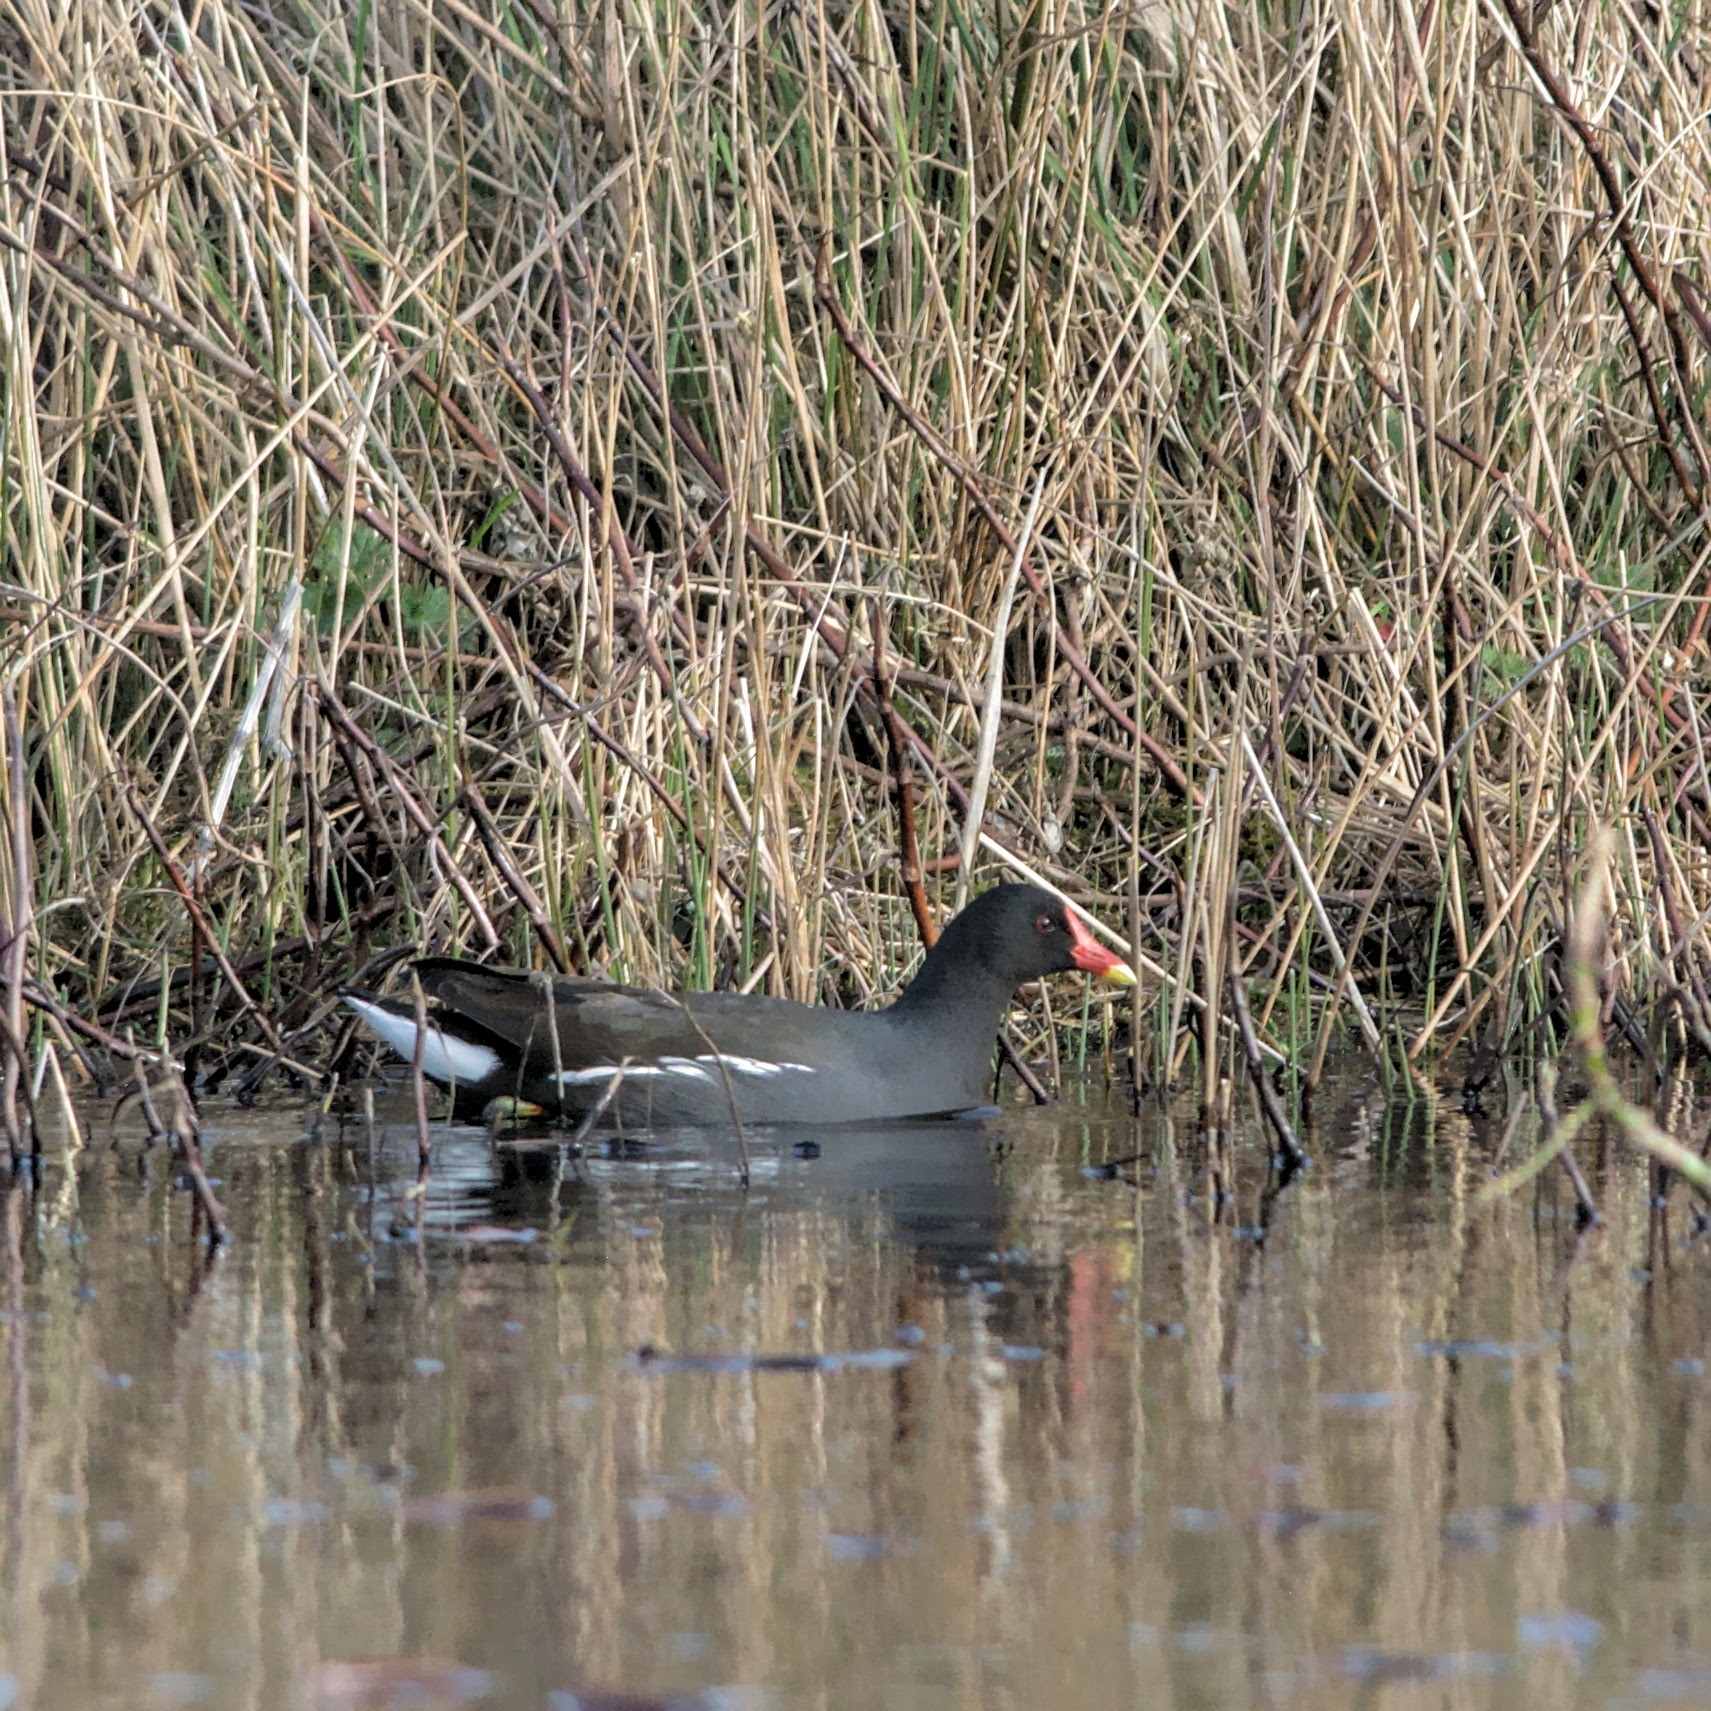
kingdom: Animalia
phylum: Chordata
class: Aves
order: Gruiformes
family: Rallidae
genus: Gallinula
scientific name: Gallinula chloropus
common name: Common moorhen
